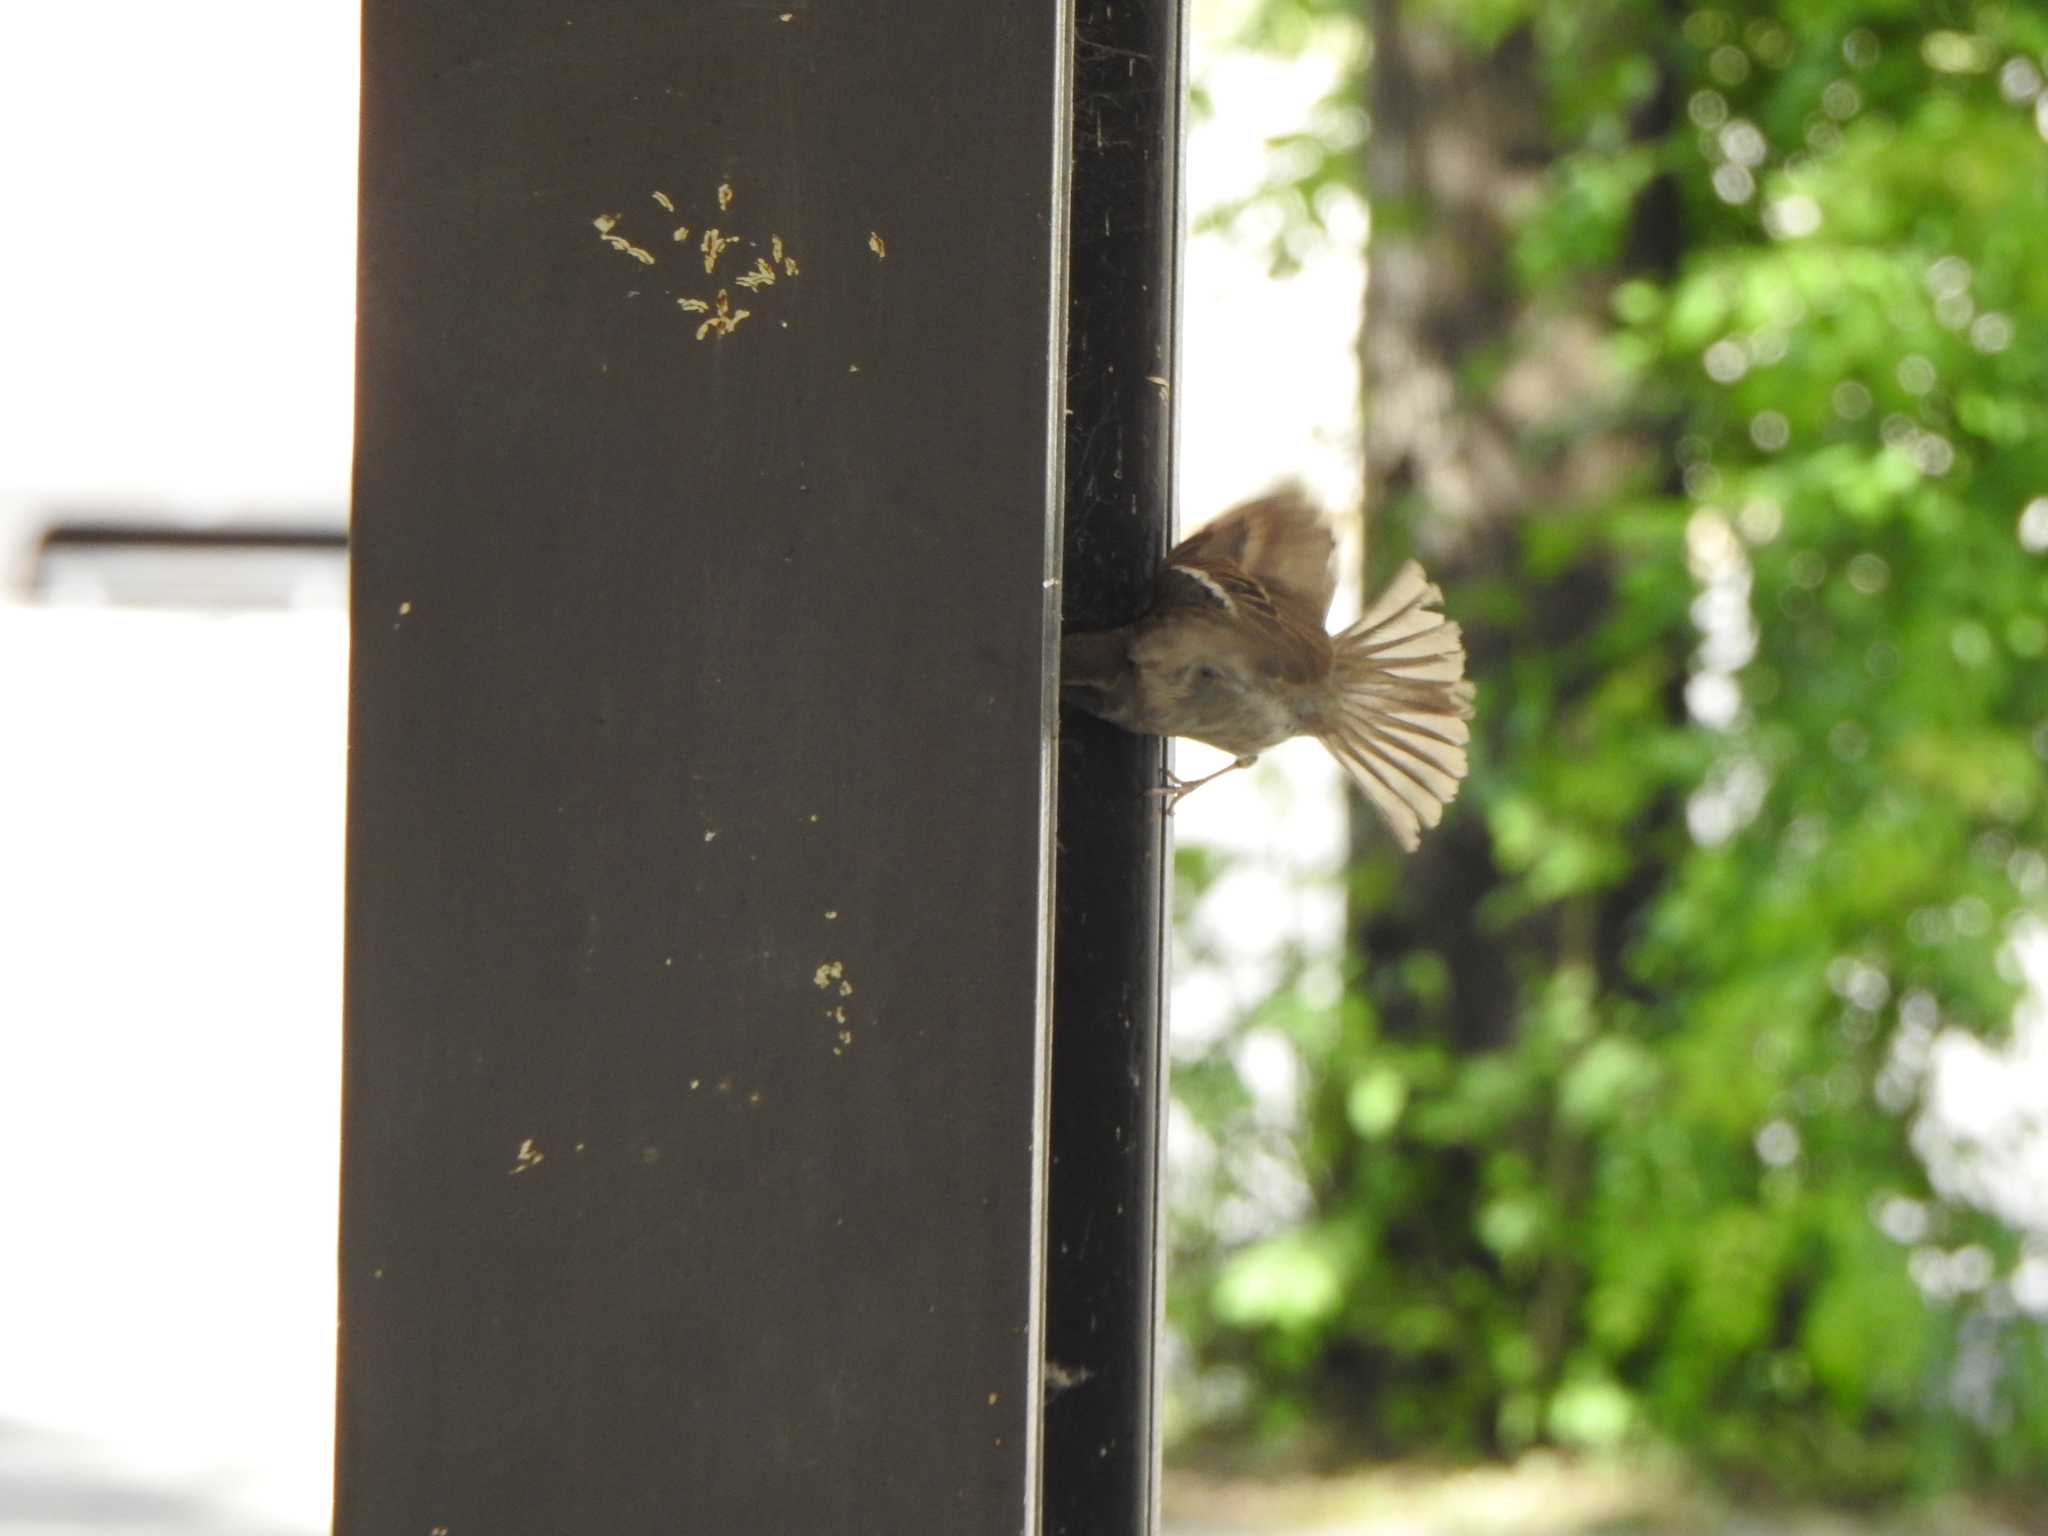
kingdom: Animalia
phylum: Chordata
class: Aves
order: Passeriformes
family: Passeridae
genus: Passer
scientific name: Passer domesticus
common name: House sparrow
